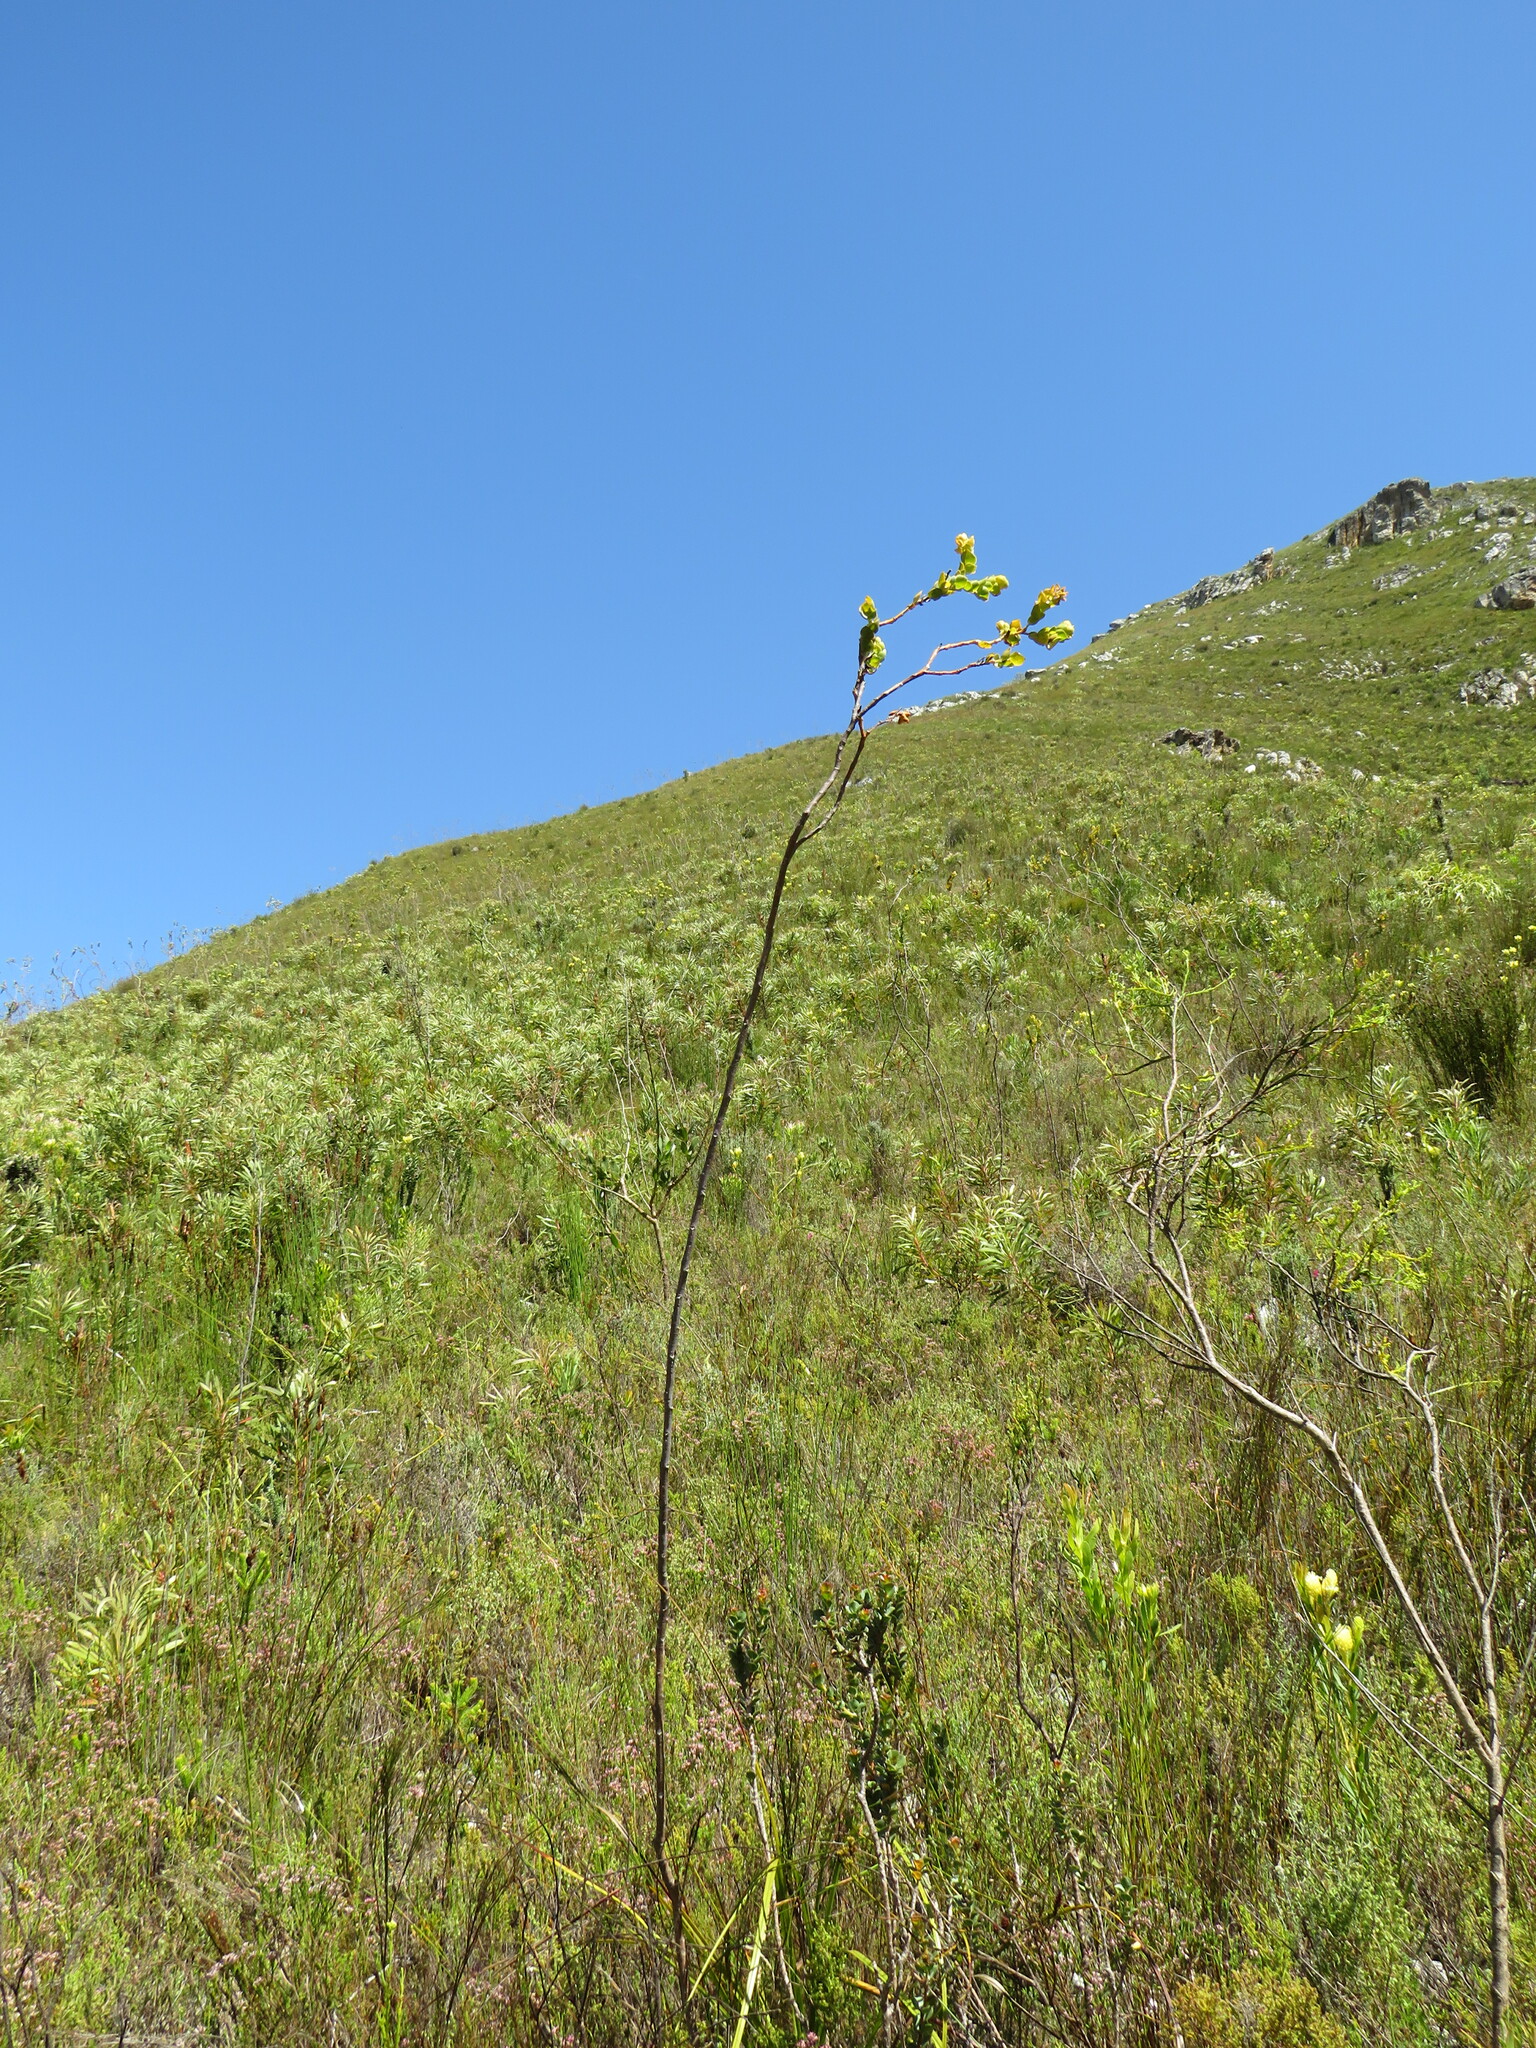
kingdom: Plantae
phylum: Tracheophyta
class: Magnoliopsida
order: Santalales
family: Thesiaceae
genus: Thesium
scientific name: Thesium euphorbioides
